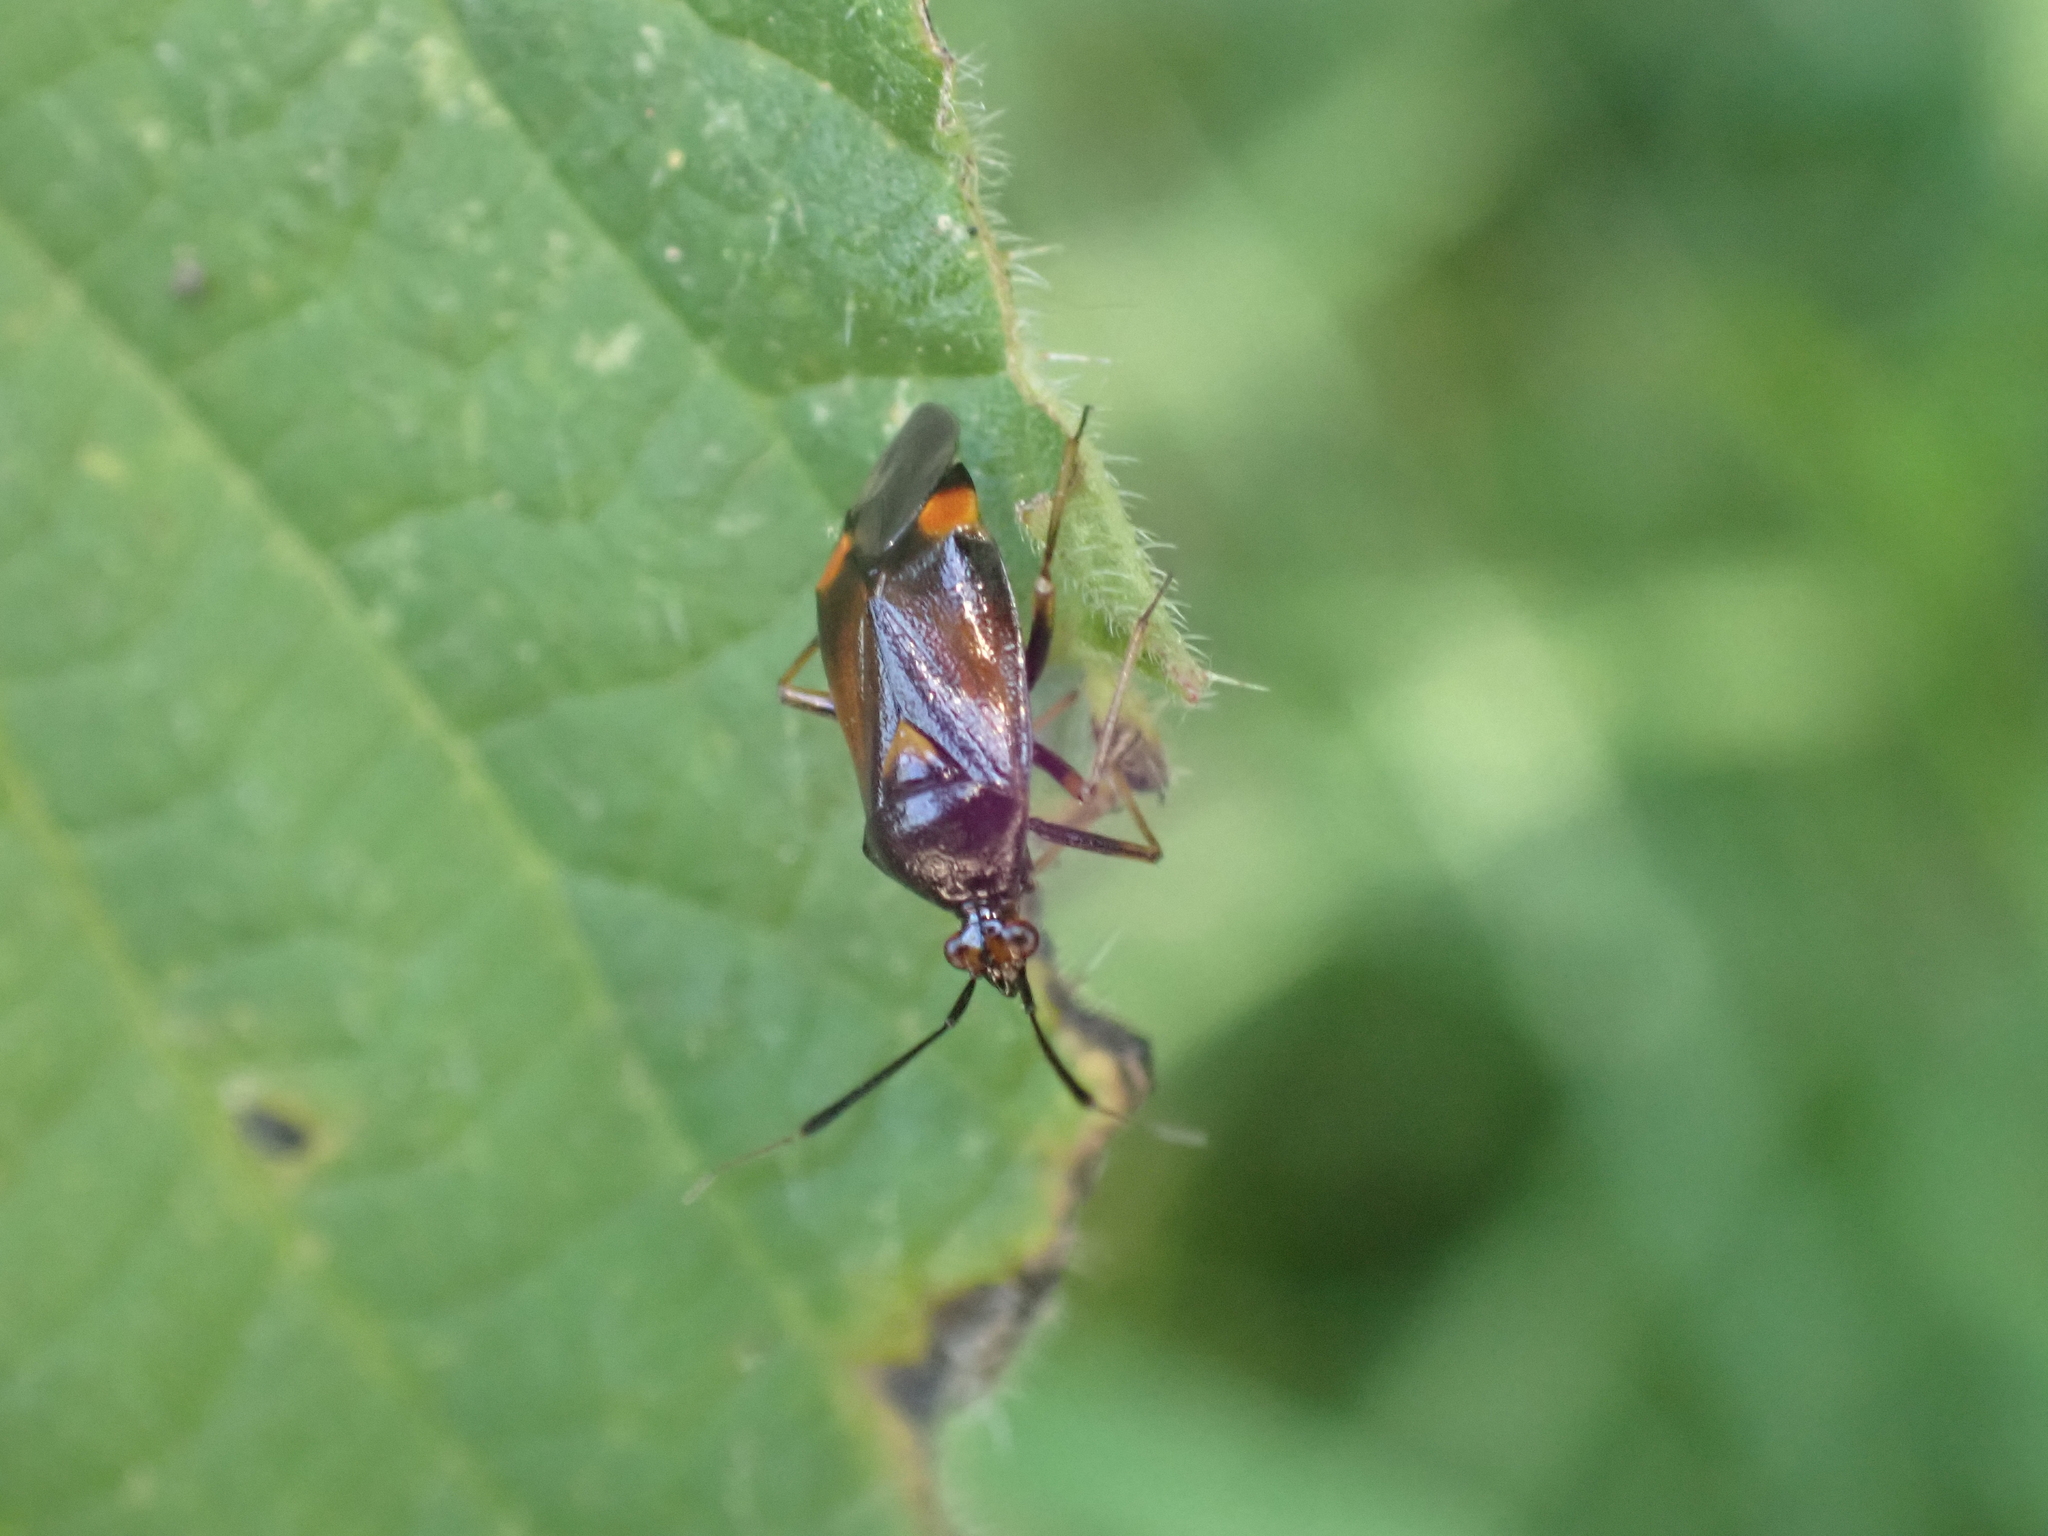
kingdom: Animalia
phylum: Arthropoda
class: Insecta
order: Hemiptera
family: Miridae
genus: Deraeocoris
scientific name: Deraeocoris ruber
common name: Plant bug
